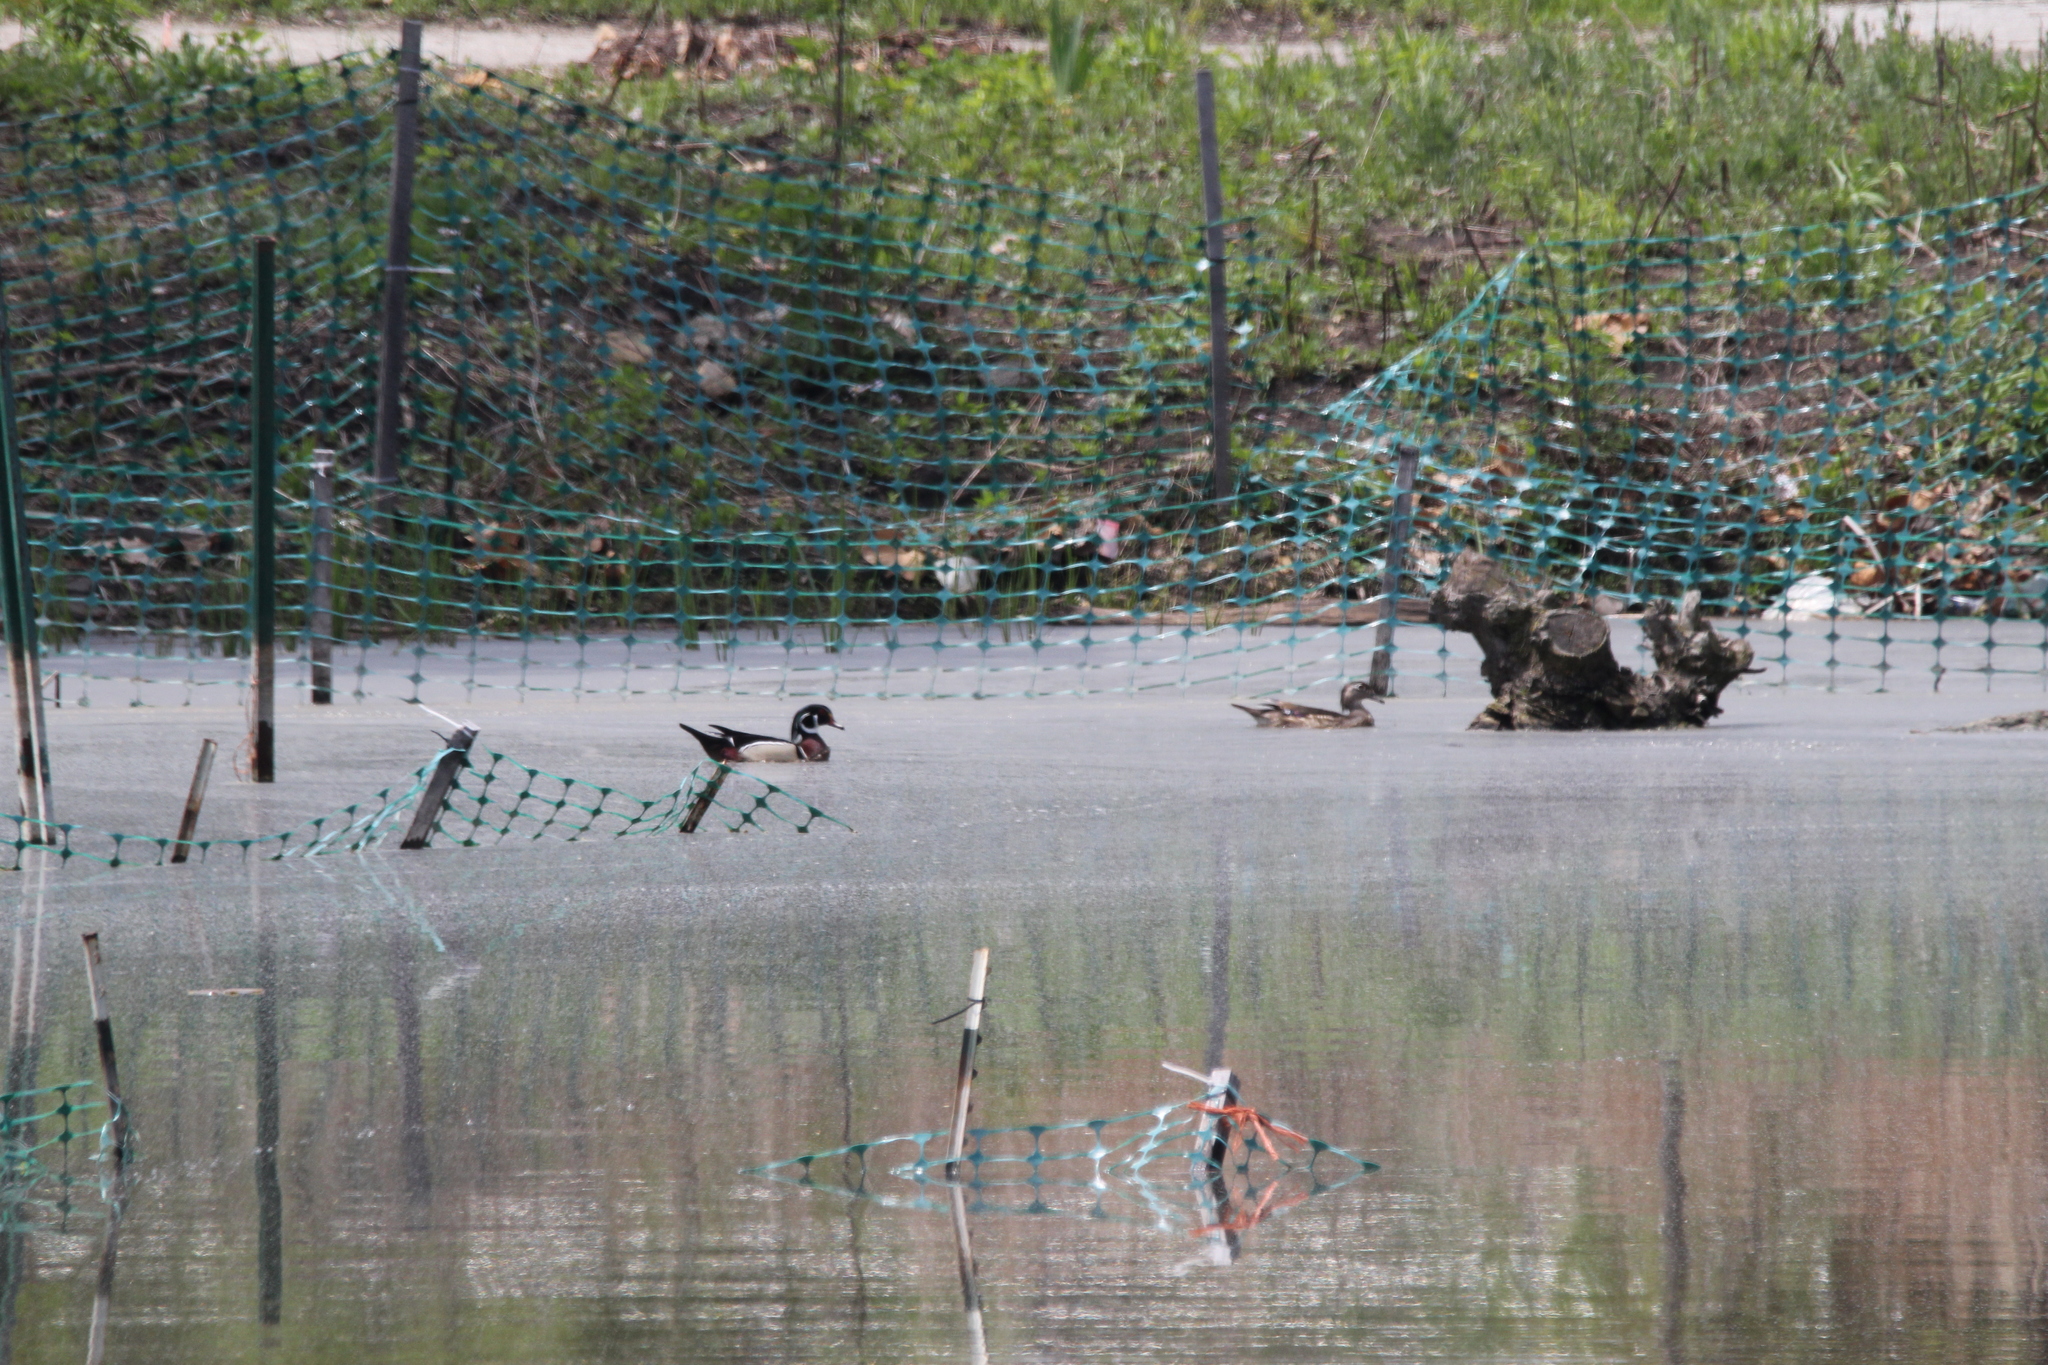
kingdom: Animalia
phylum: Chordata
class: Aves
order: Anseriformes
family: Anatidae
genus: Aix
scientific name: Aix sponsa
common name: Wood duck
